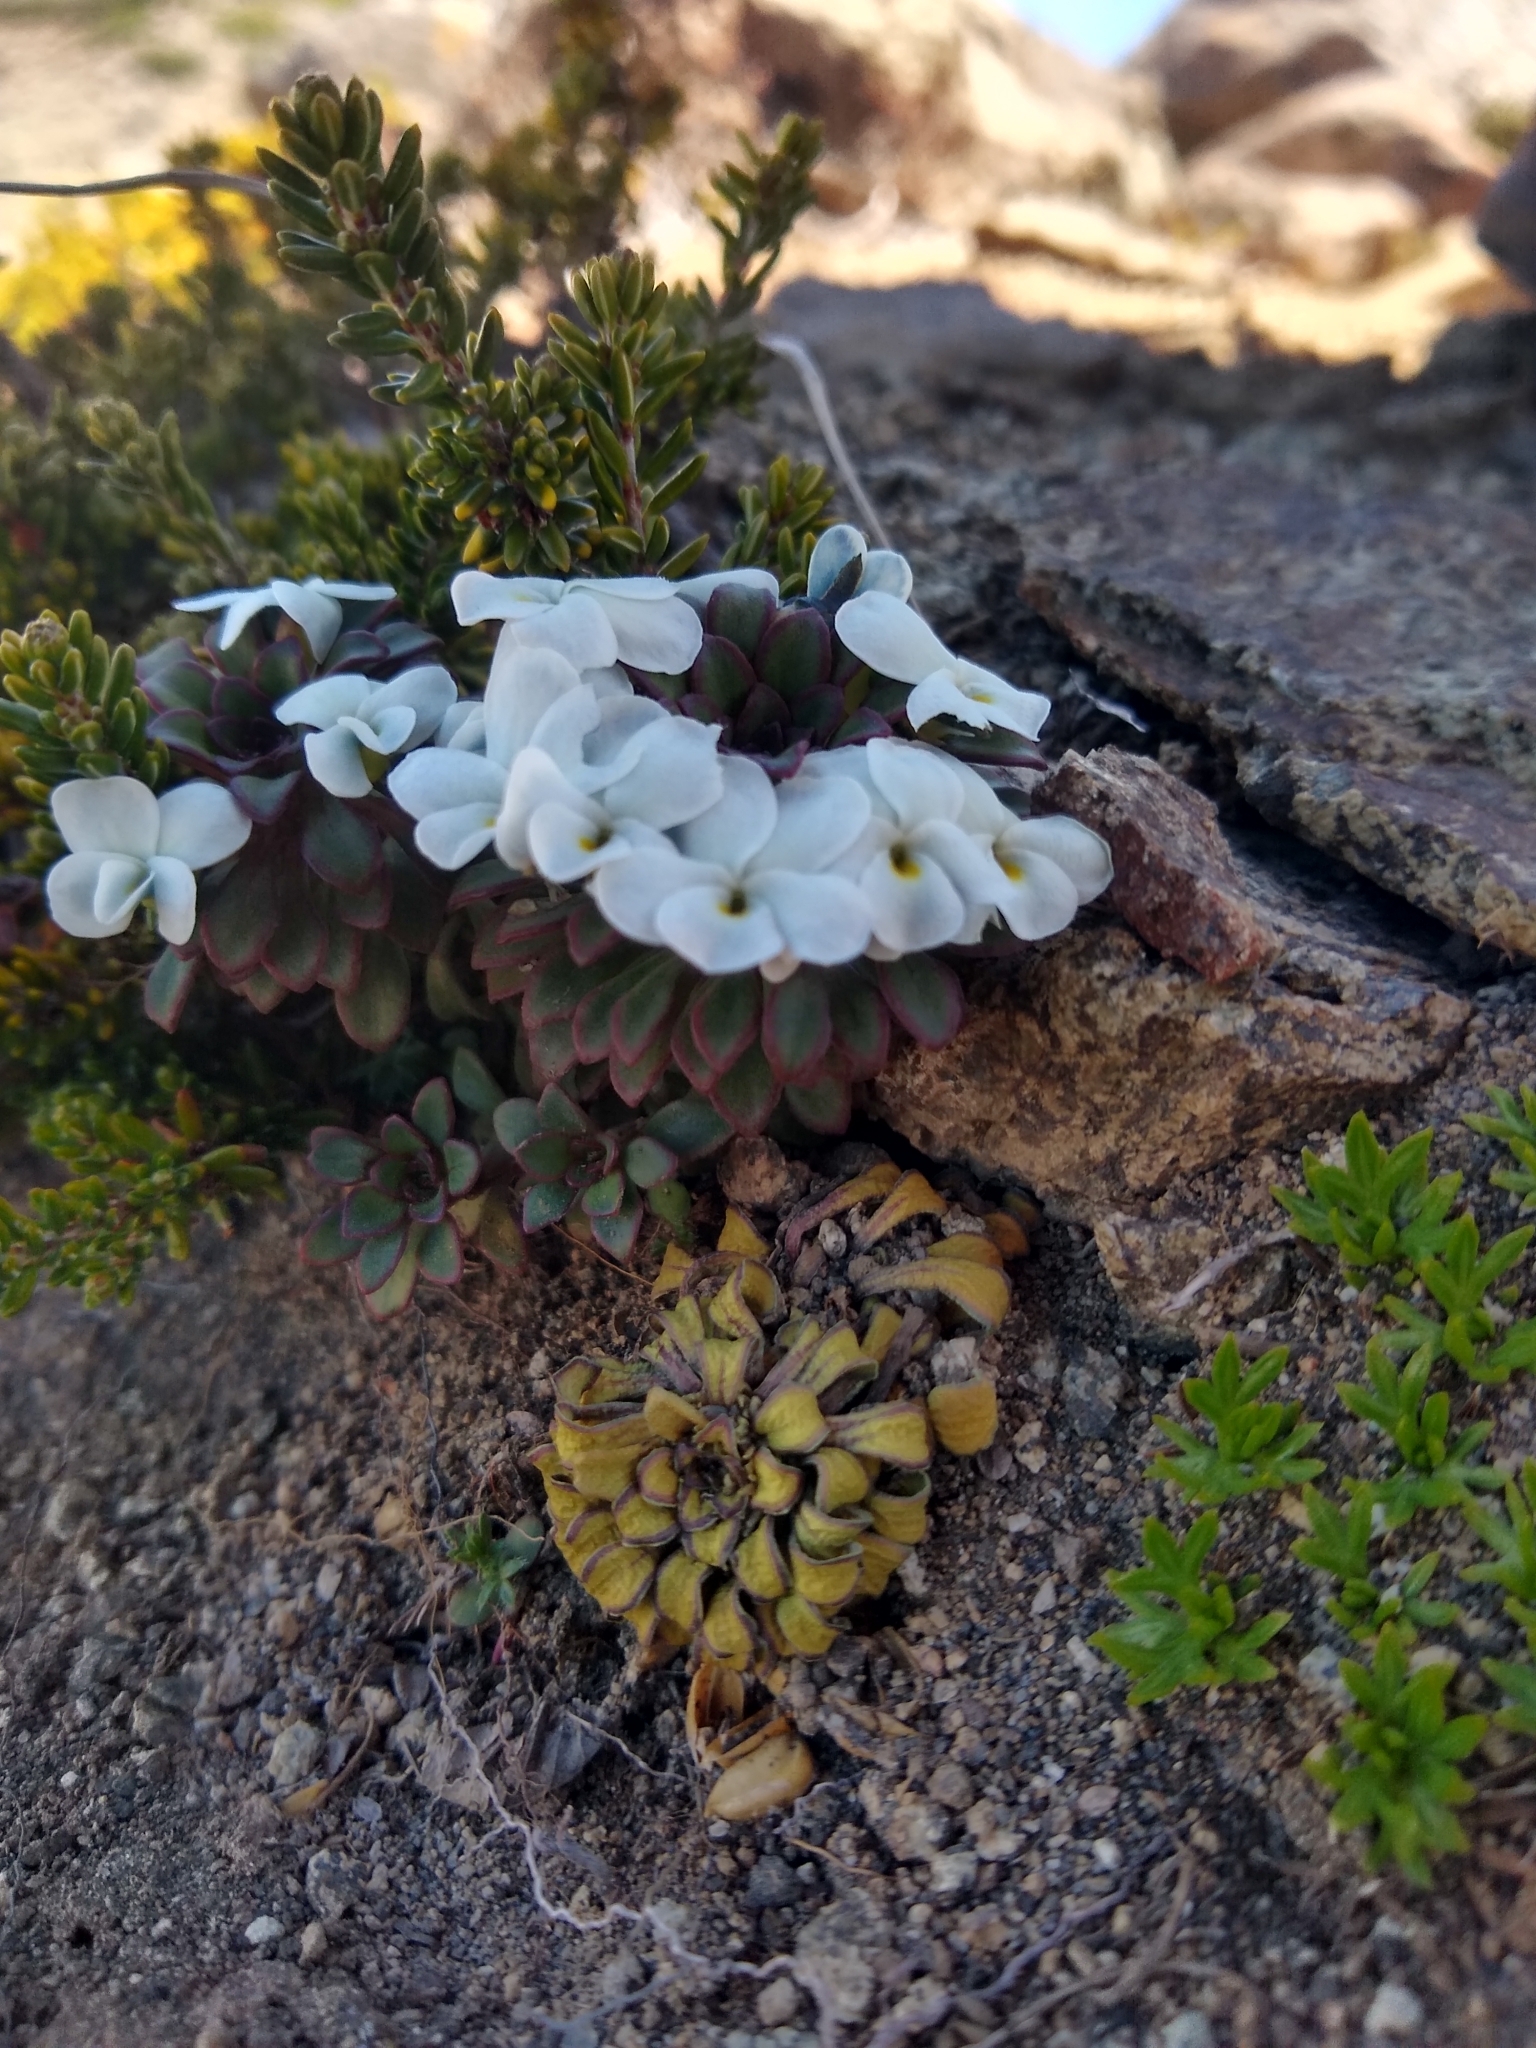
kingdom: Plantae
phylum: Tracheophyta
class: Magnoliopsida
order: Malpighiales
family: Violaceae
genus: Viola
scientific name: Viola sacculus
